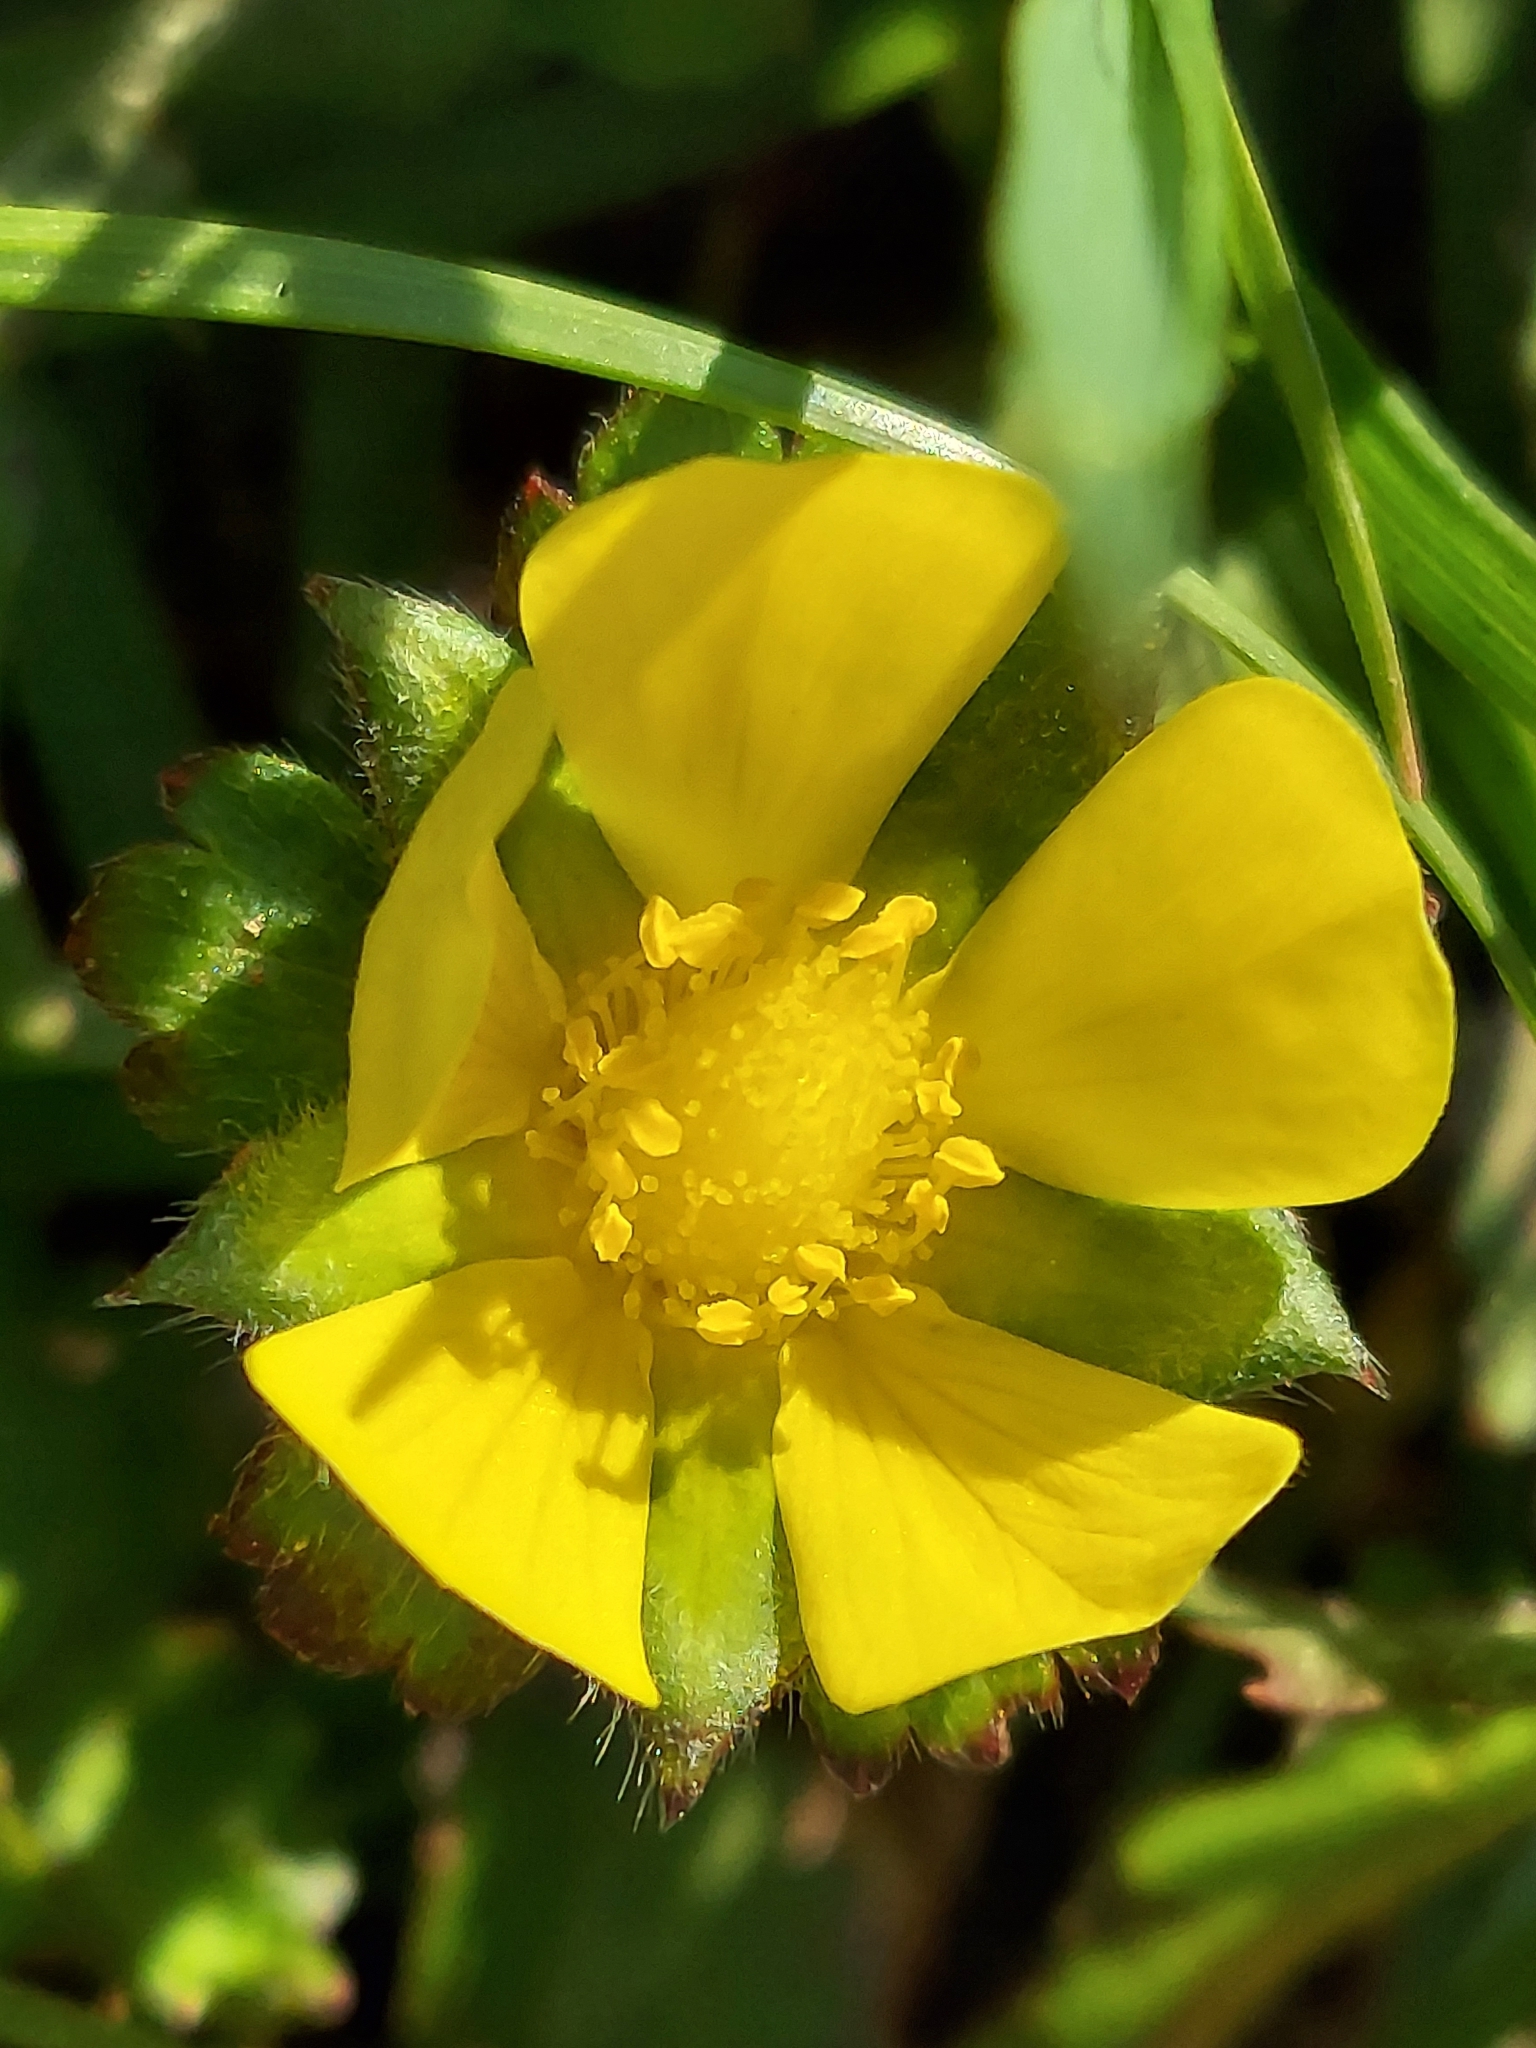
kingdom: Plantae
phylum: Tracheophyta
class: Magnoliopsida
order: Rosales
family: Rosaceae
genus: Potentilla
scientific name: Potentilla indica
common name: Yellow-flowered strawberry
